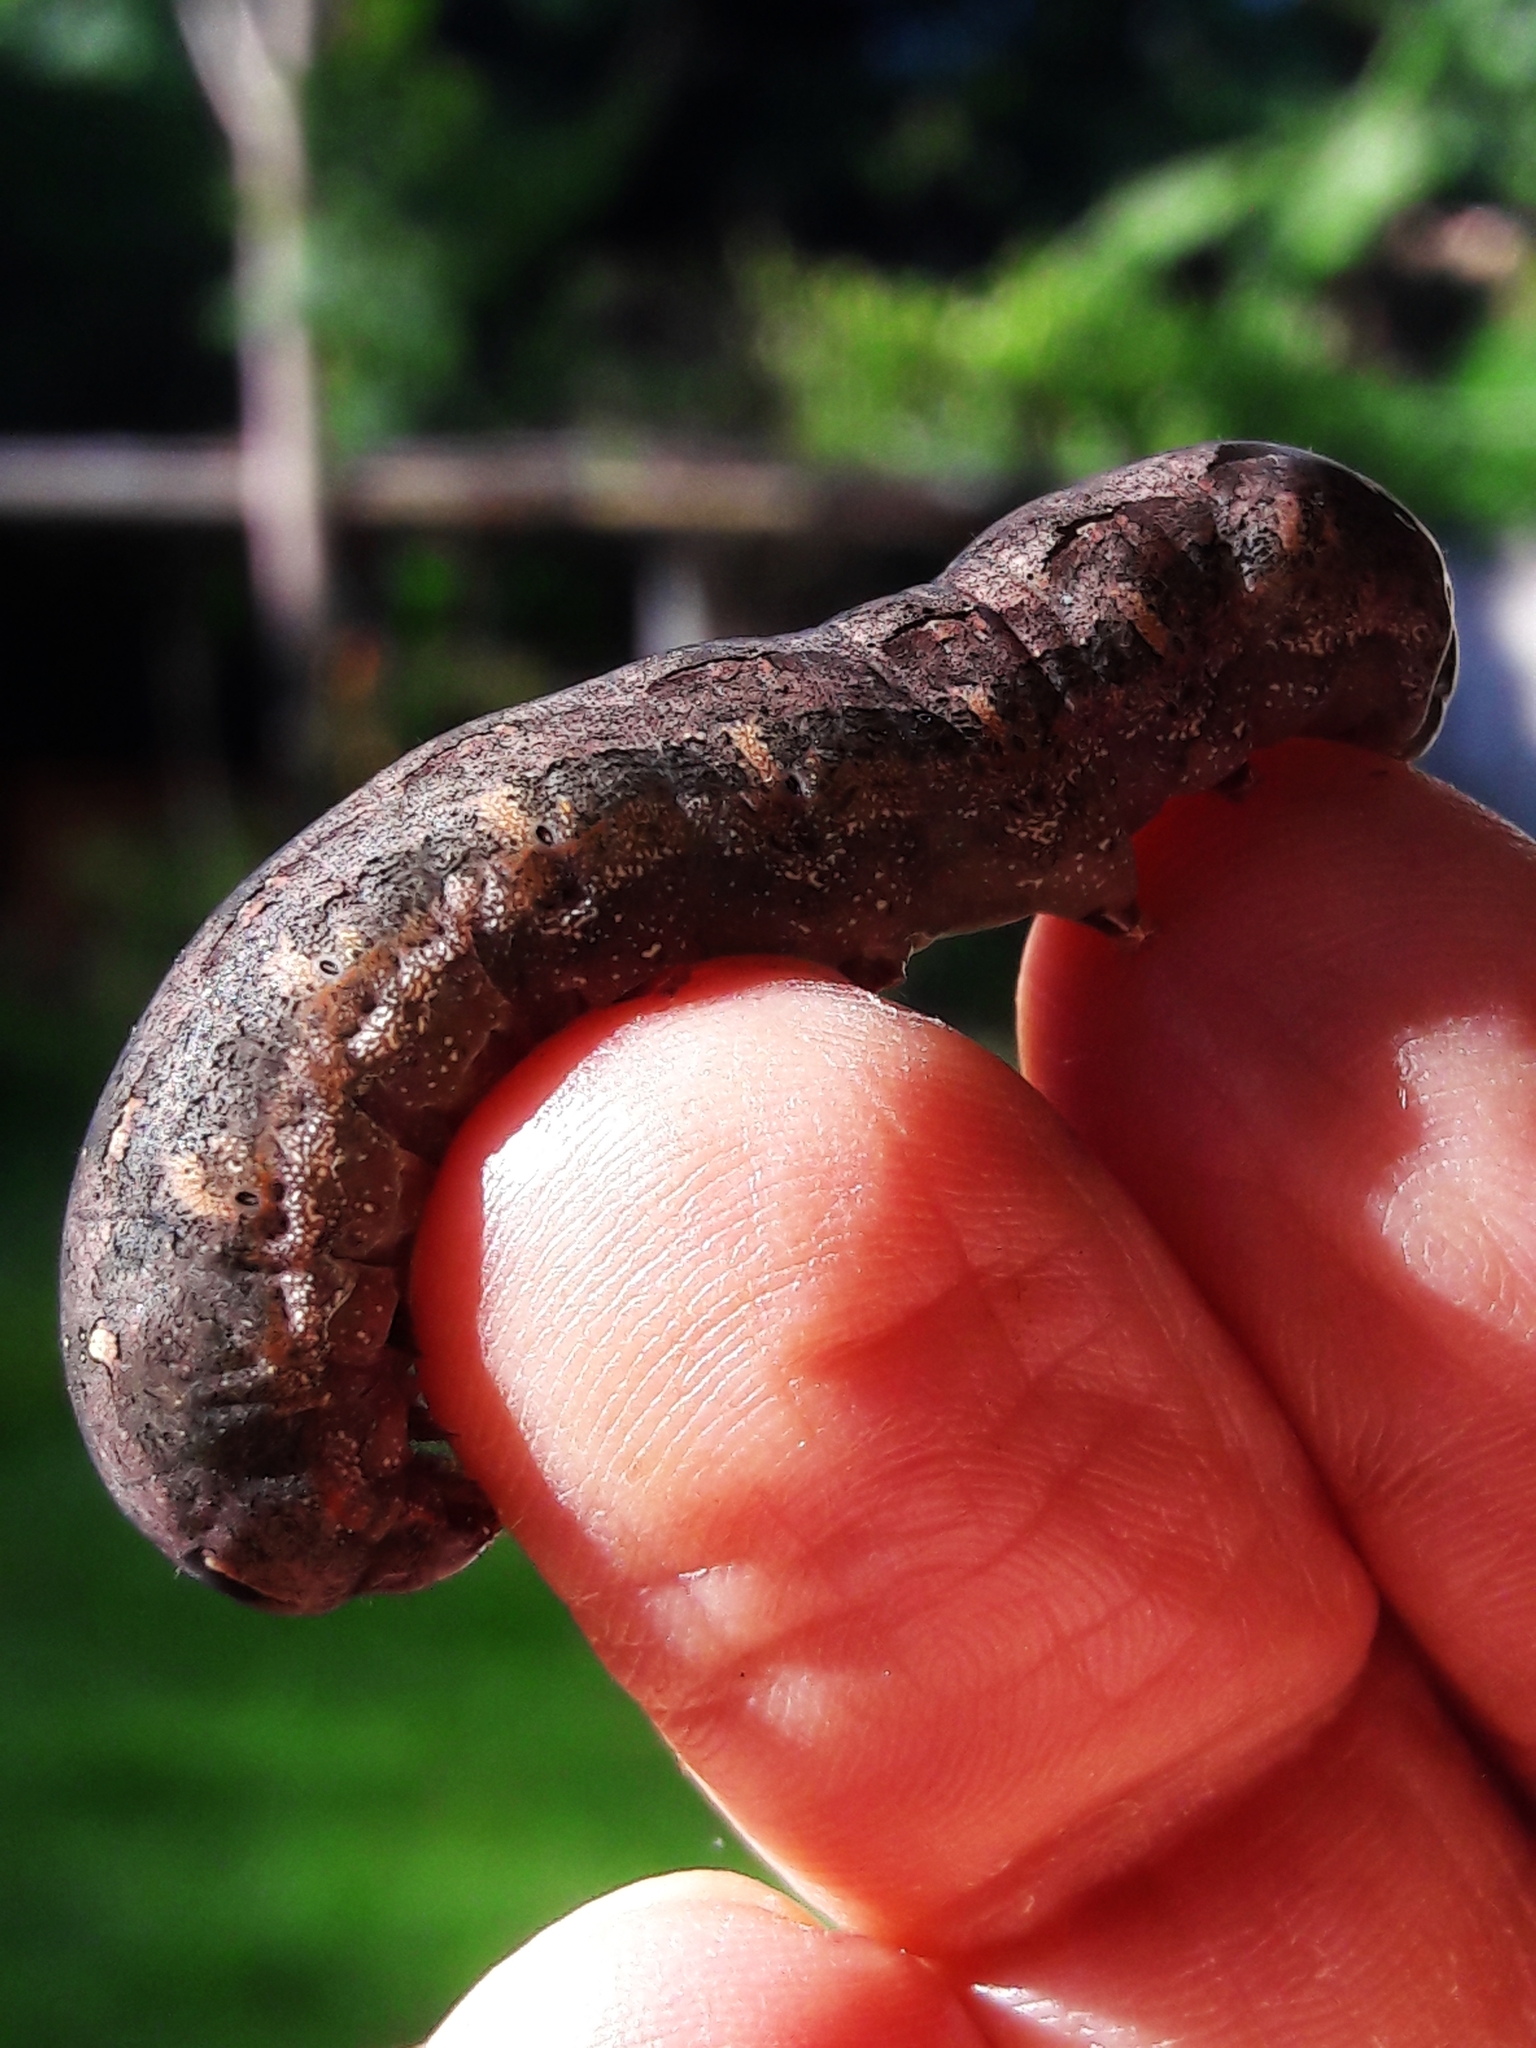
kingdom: Animalia
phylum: Arthropoda
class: Insecta
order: Lepidoptera
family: Noctuidae
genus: Spodoptera
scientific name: Spodoptera cosmioides
